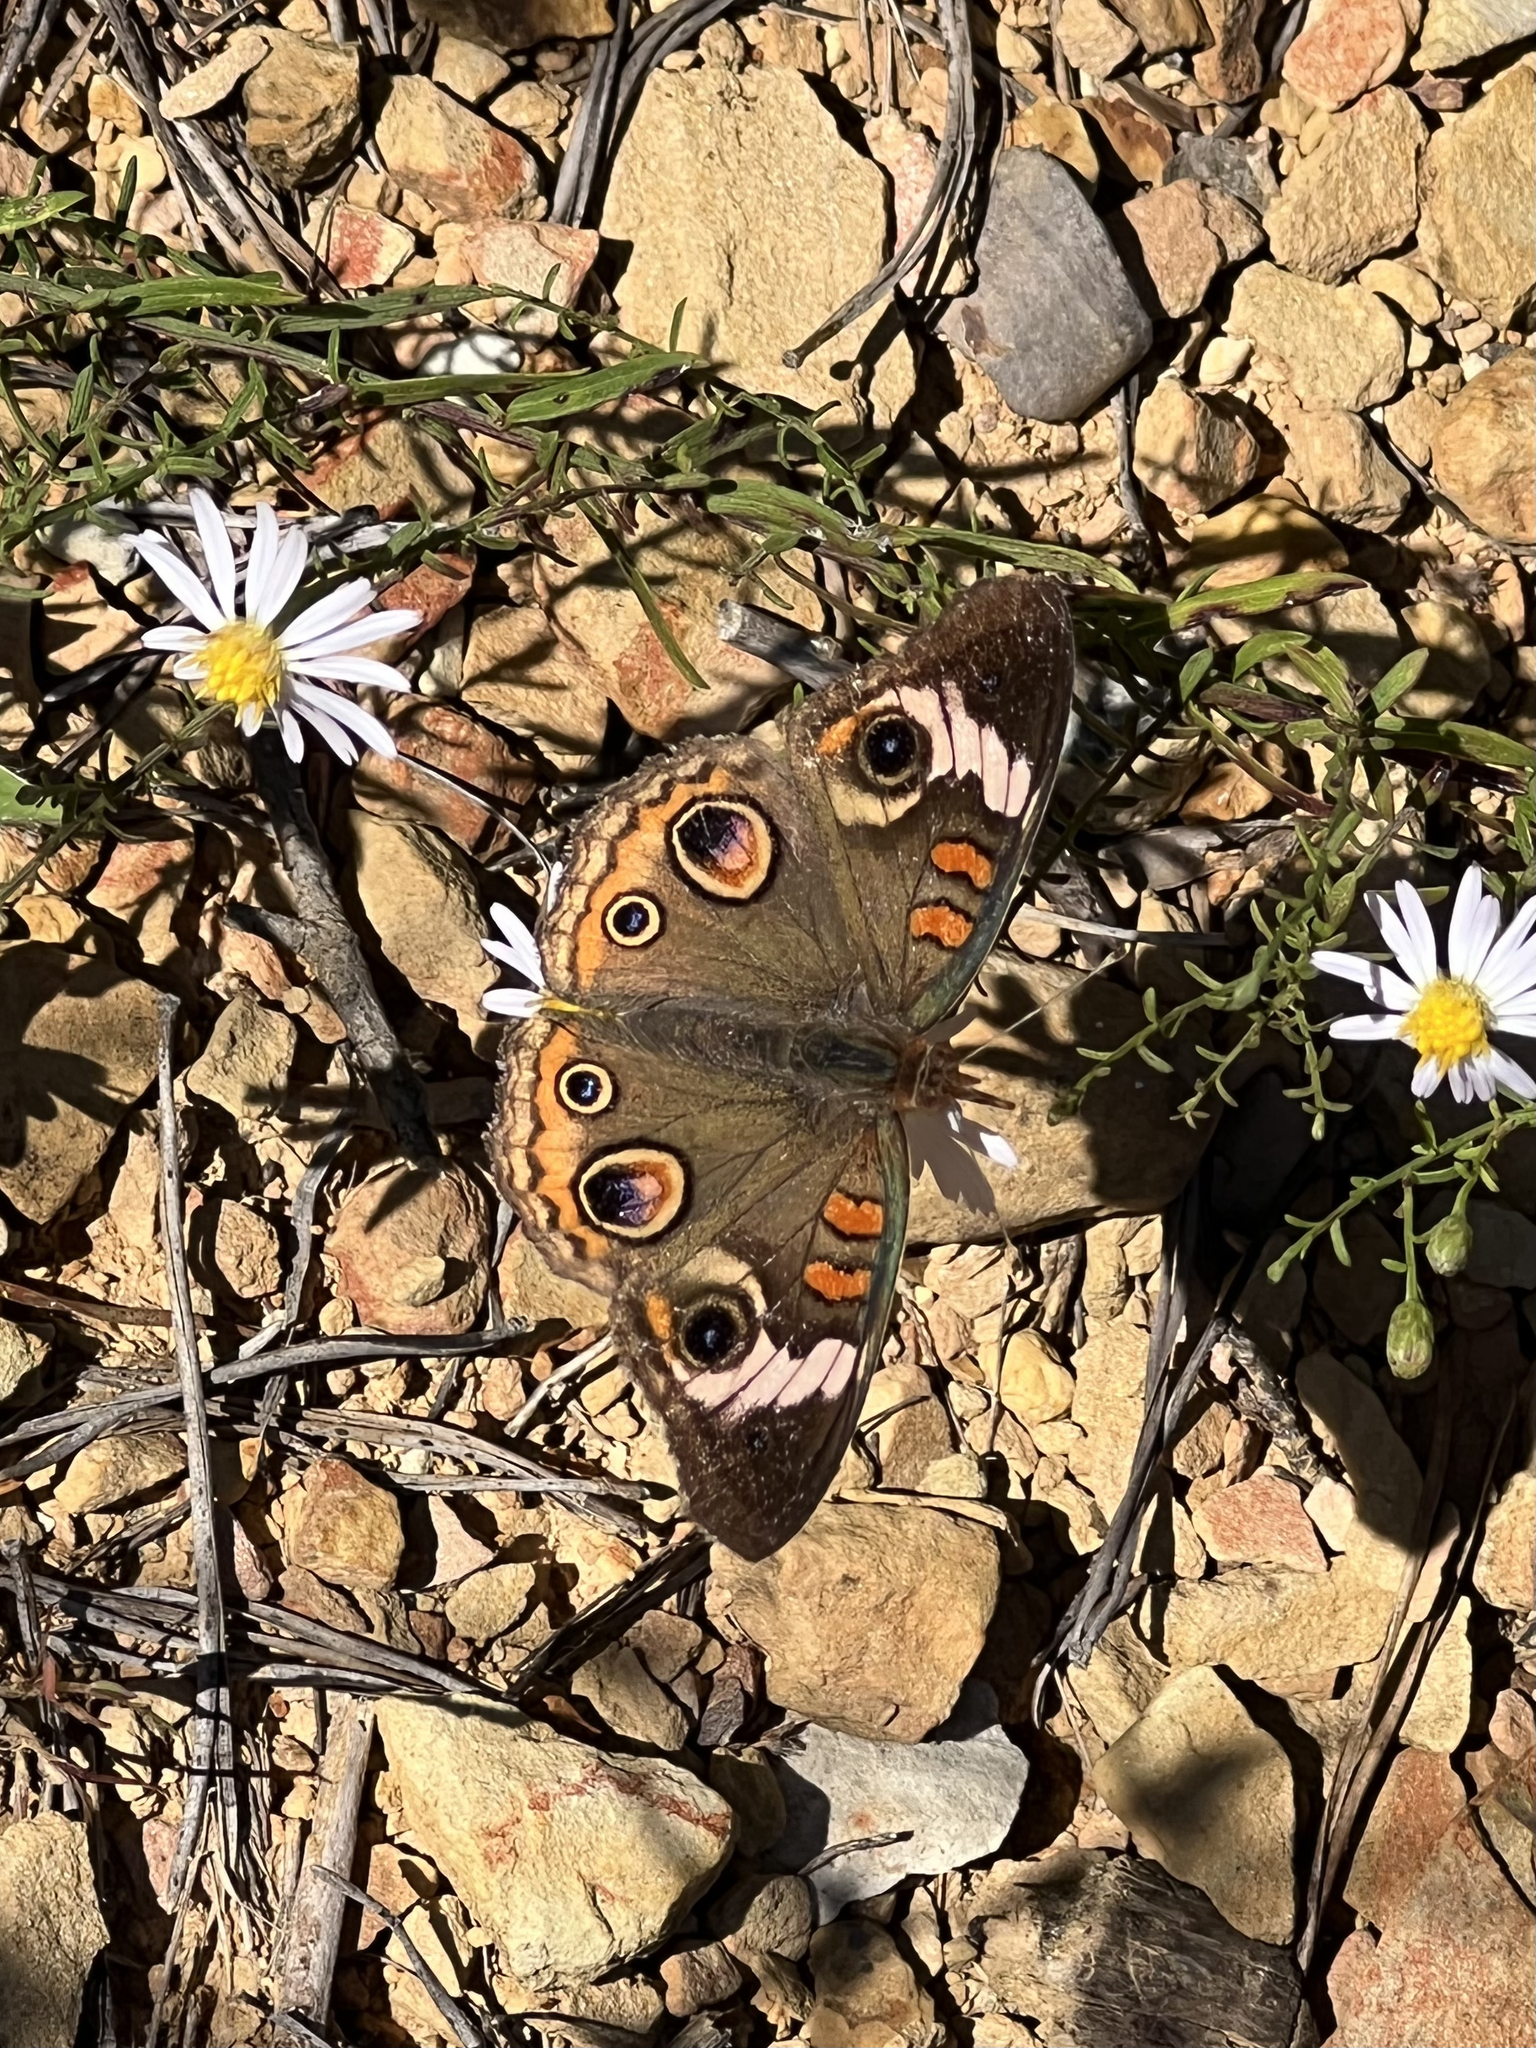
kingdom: Animalia
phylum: Arthropoda
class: Insecta
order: Lepidoptera
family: Nymphalidae
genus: Junonia
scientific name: Junonia coenia
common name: Common buckeye
